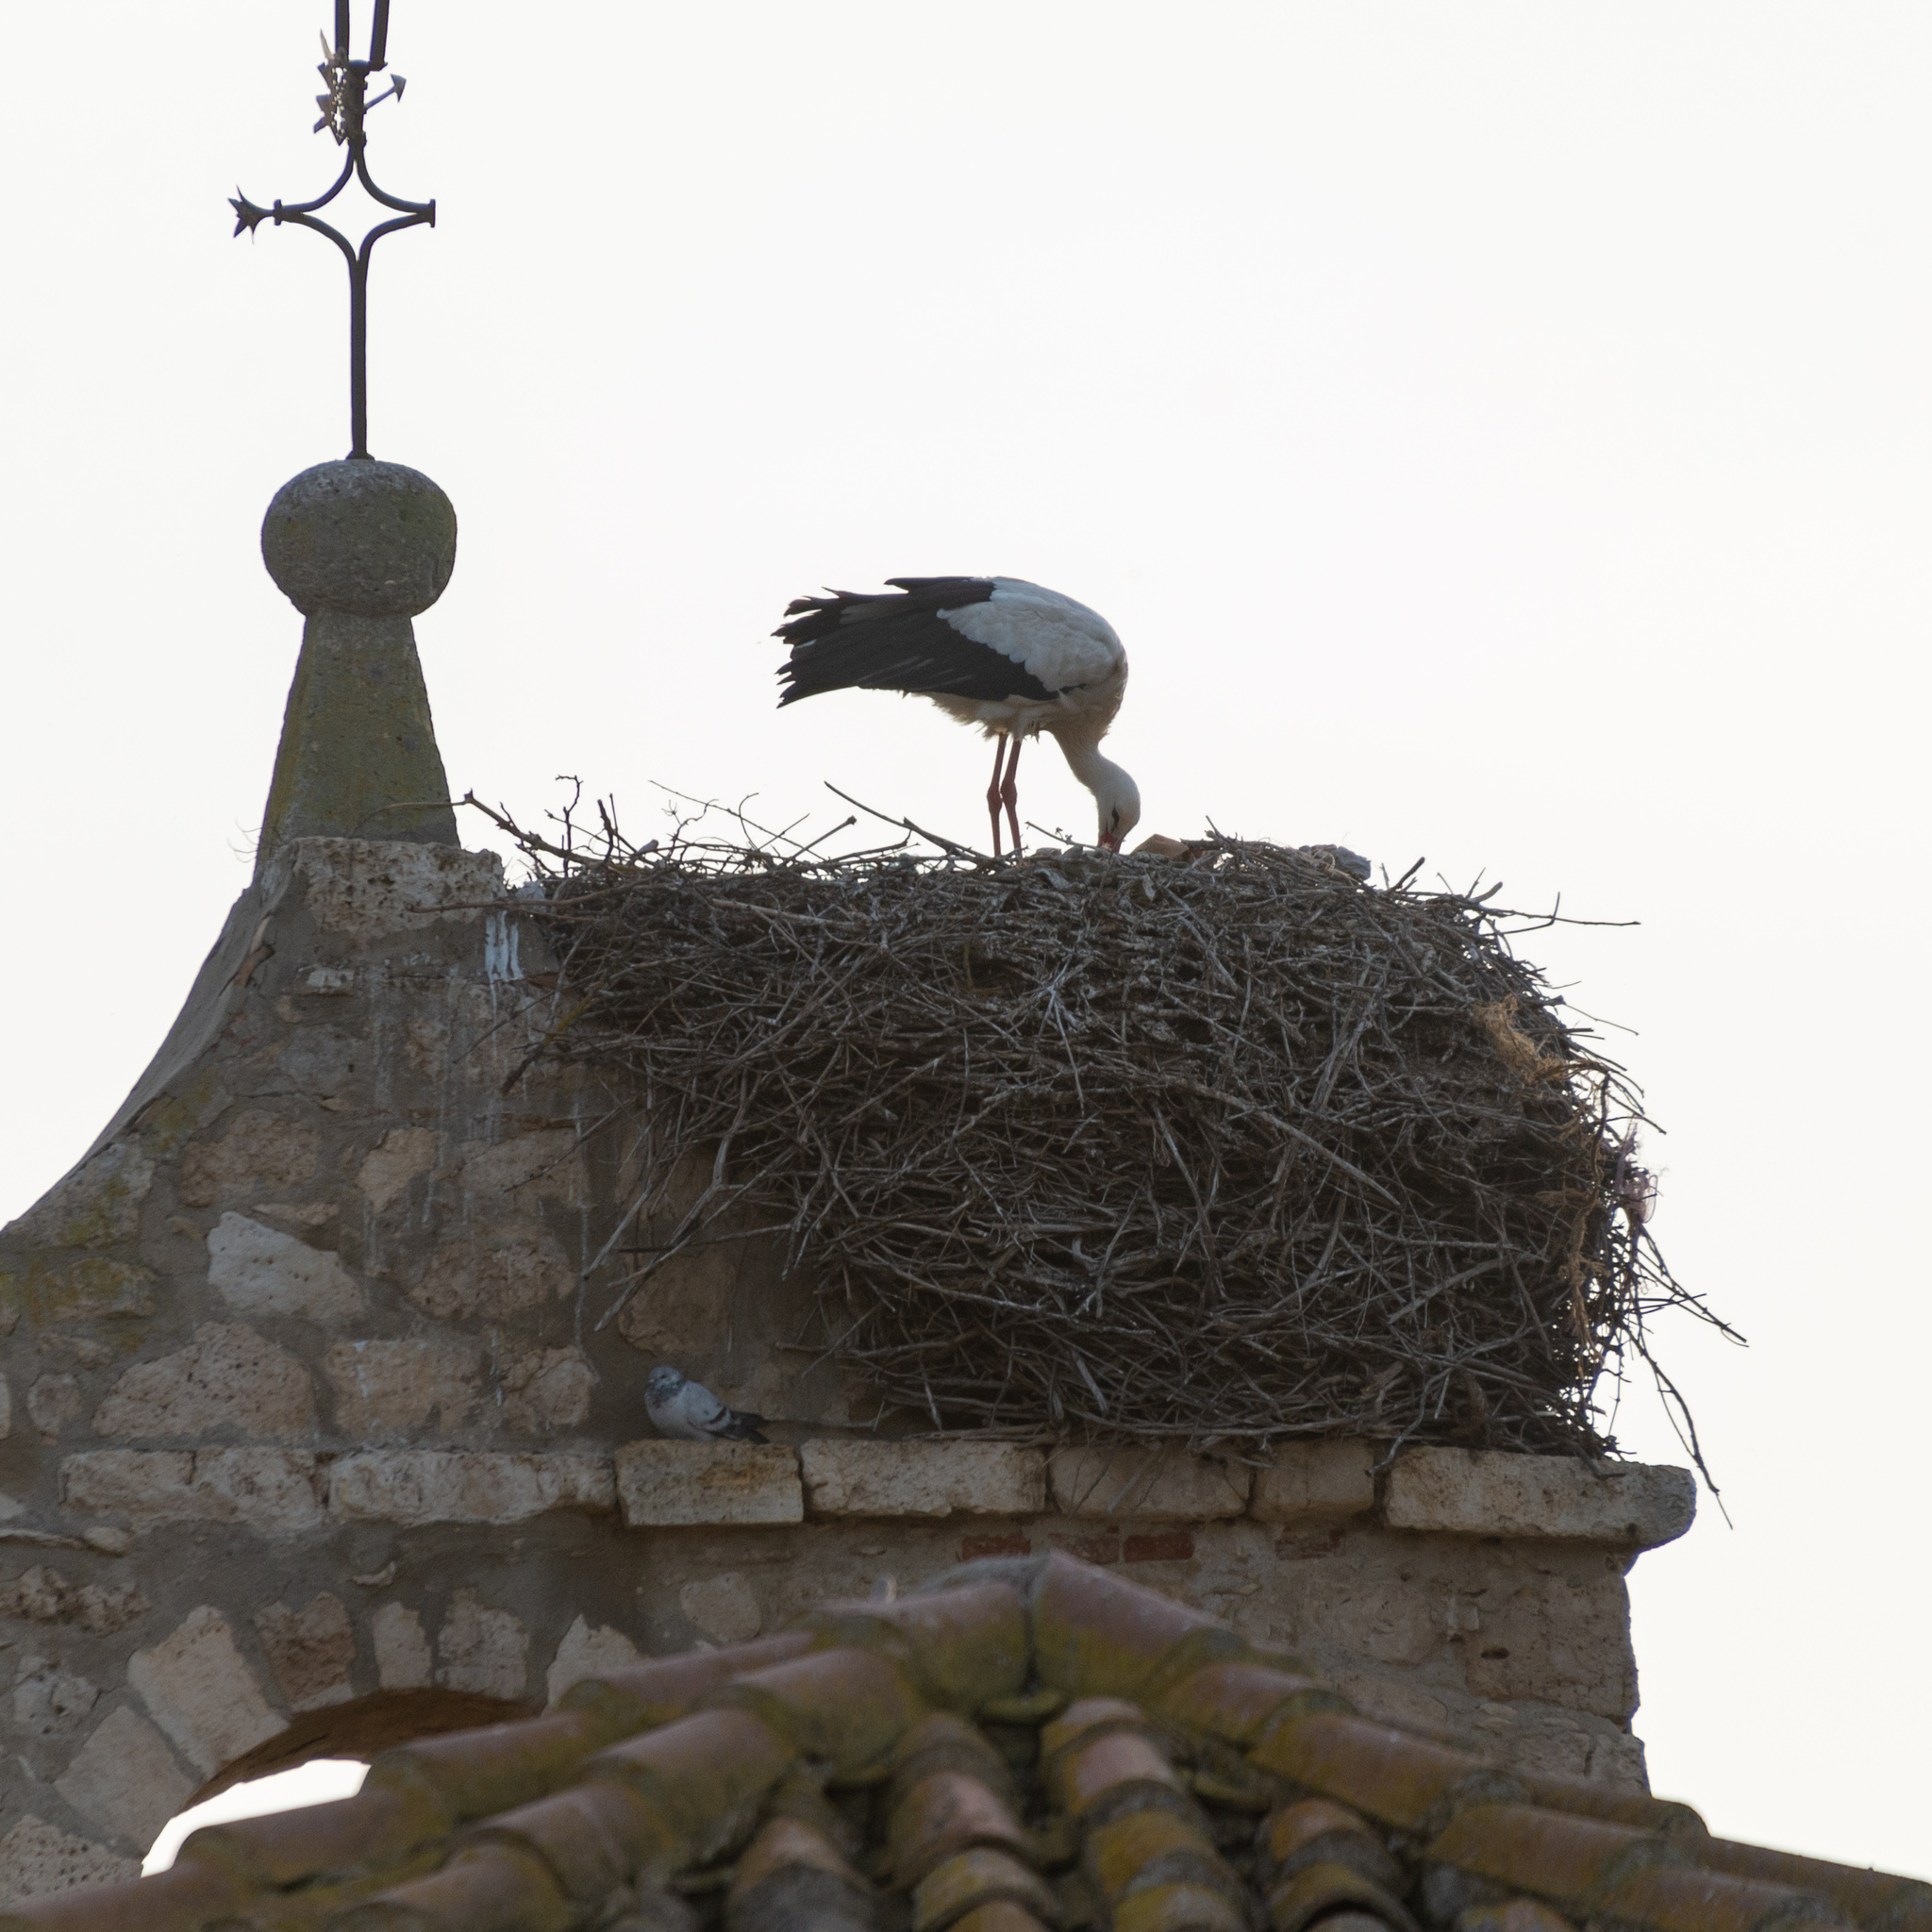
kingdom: Animalia
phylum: Chordata
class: Aves
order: Ciconiiformes
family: Ciconiidae
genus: Ciconia
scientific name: Ciconia ciconia
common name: White stork
